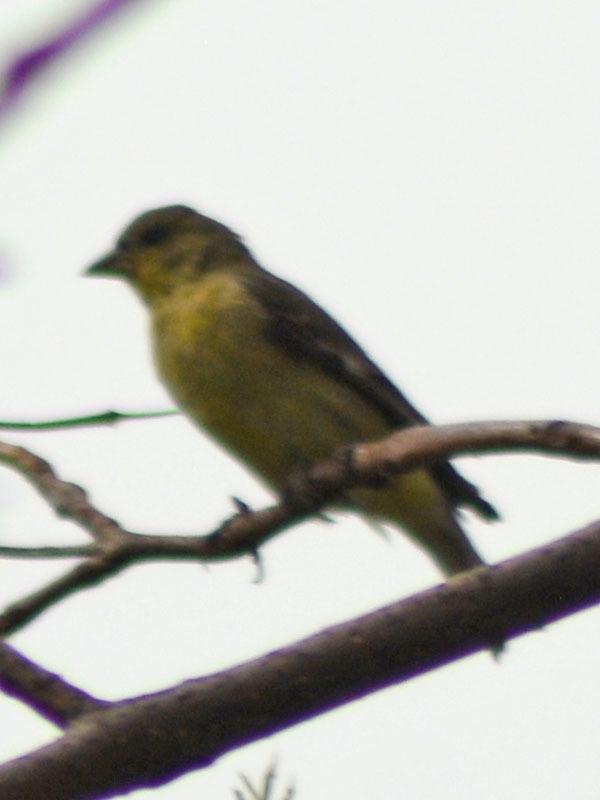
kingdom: Animalia
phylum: Chordata
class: Aves
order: Passeriformes
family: Fringillidae
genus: Spinus
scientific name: Spinus psaltria
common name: Lesser goldfinch
